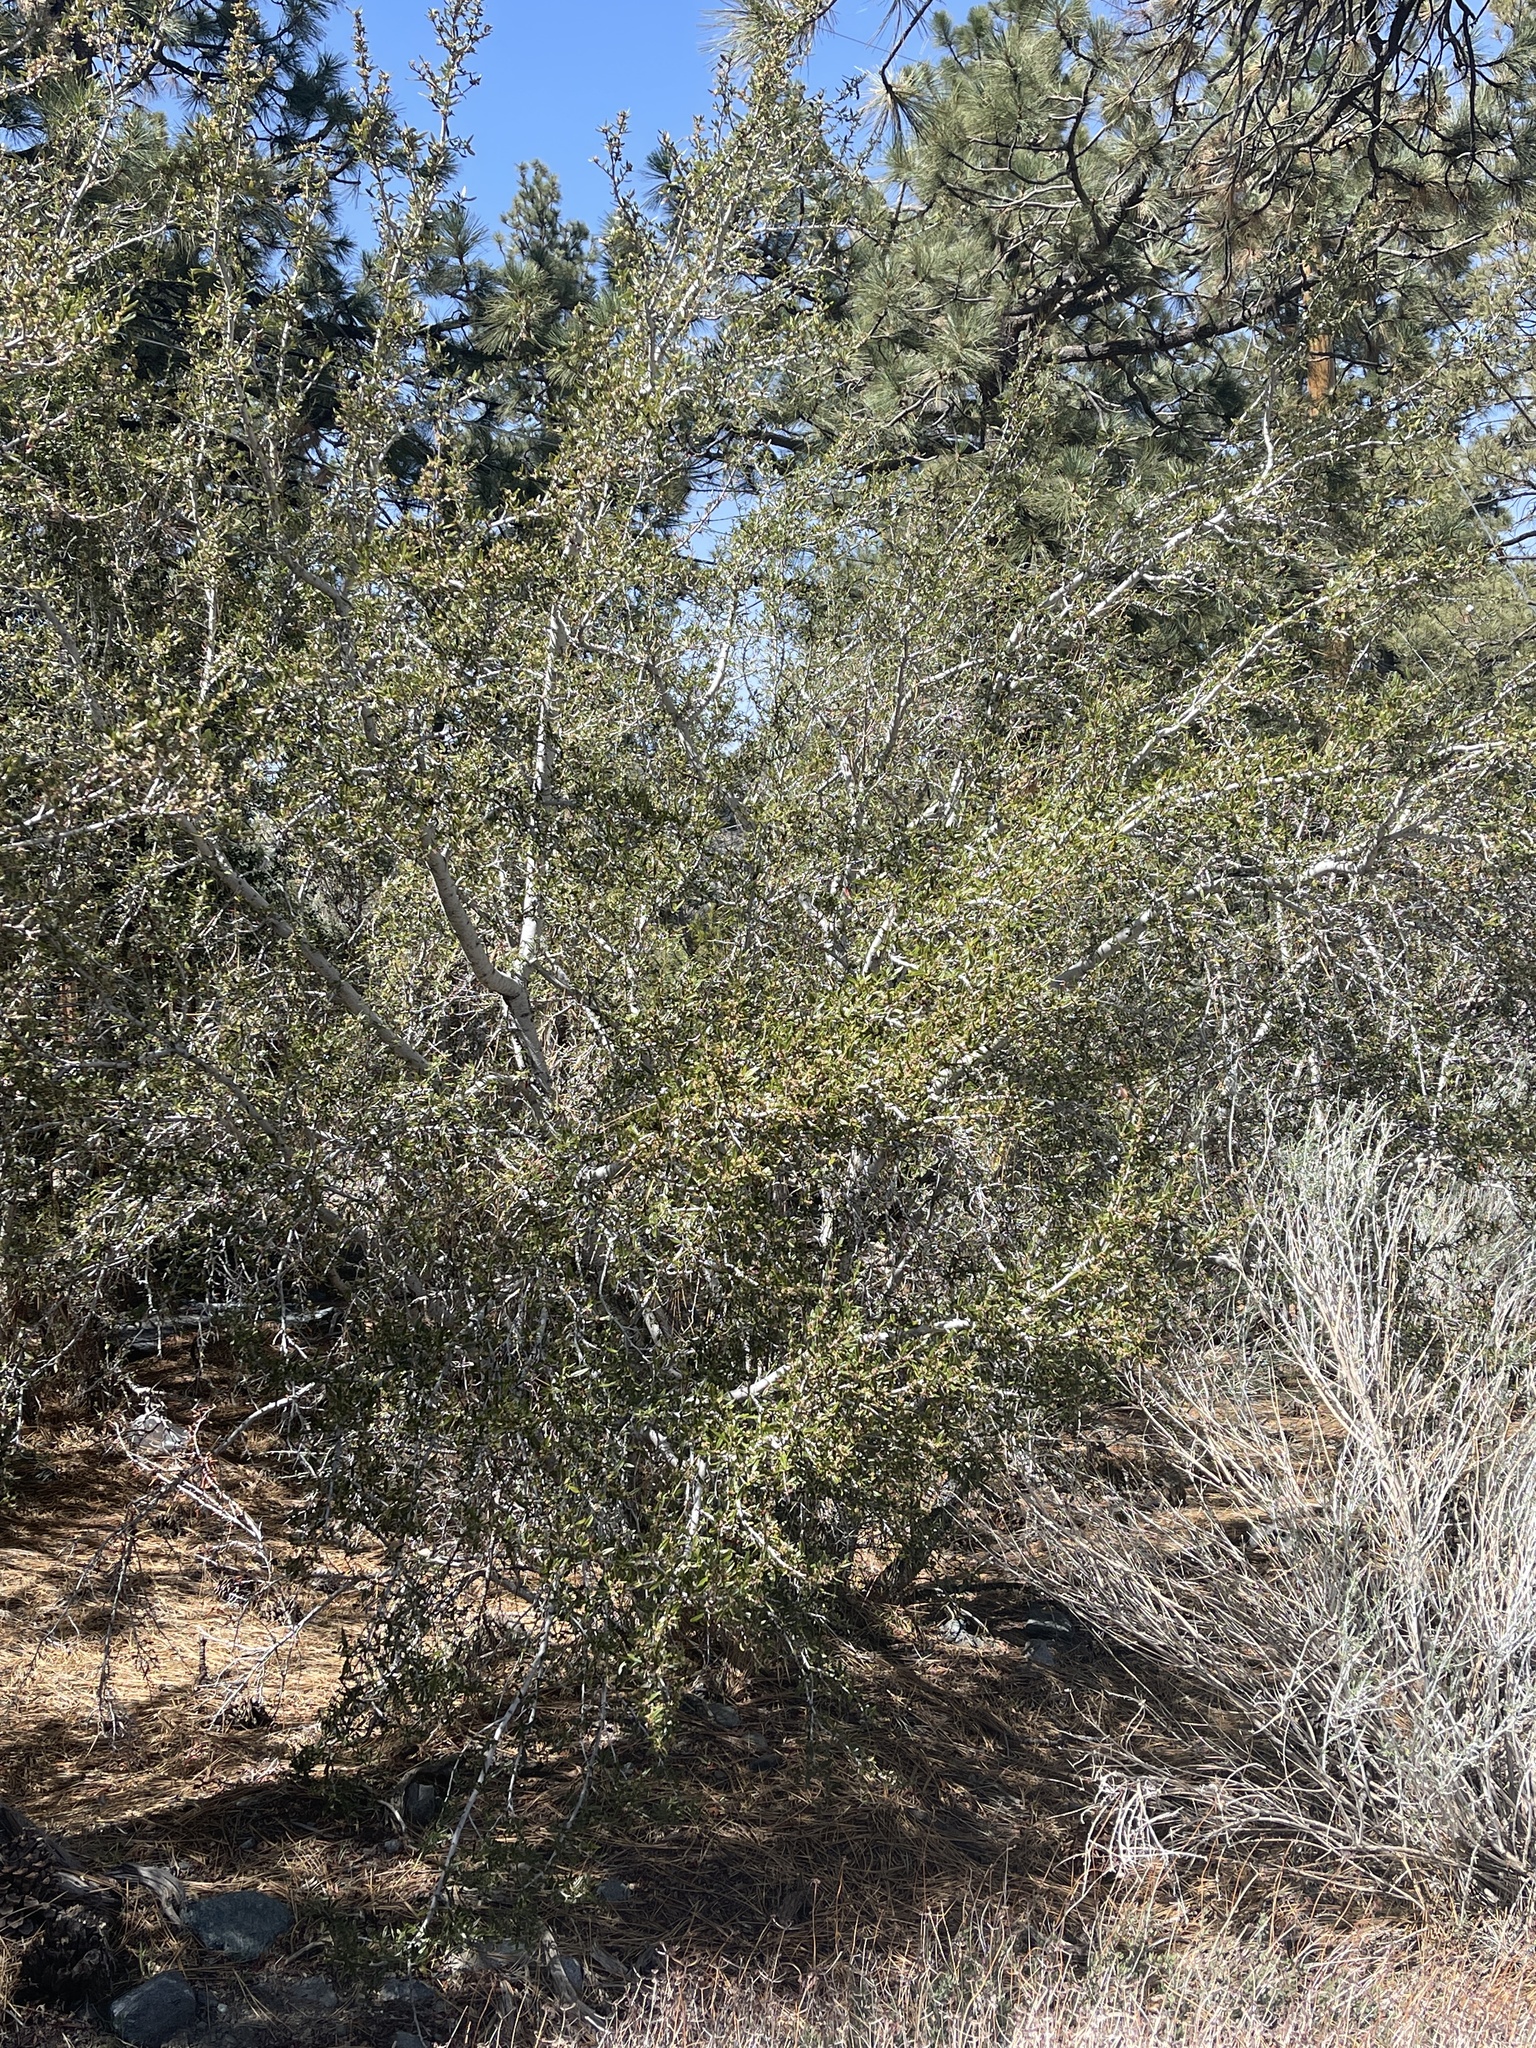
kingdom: Plantae
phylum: Tracheophyta
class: Magnoliopsida
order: Rosales
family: Rosaceae
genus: Cercocarpus
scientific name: Cercocarpus ledifolius
